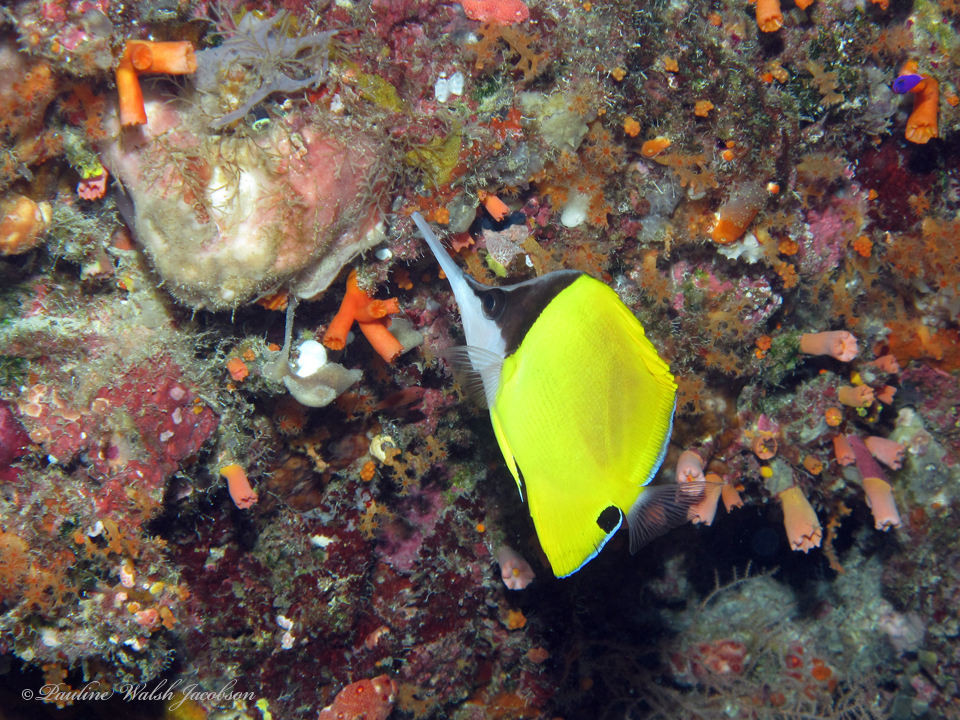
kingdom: Animalia
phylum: Chordata
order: Perciformes
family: Chaetodontidae
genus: Forcipiger
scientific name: Forcipiger longirostris
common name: Longnose butterflyfish
